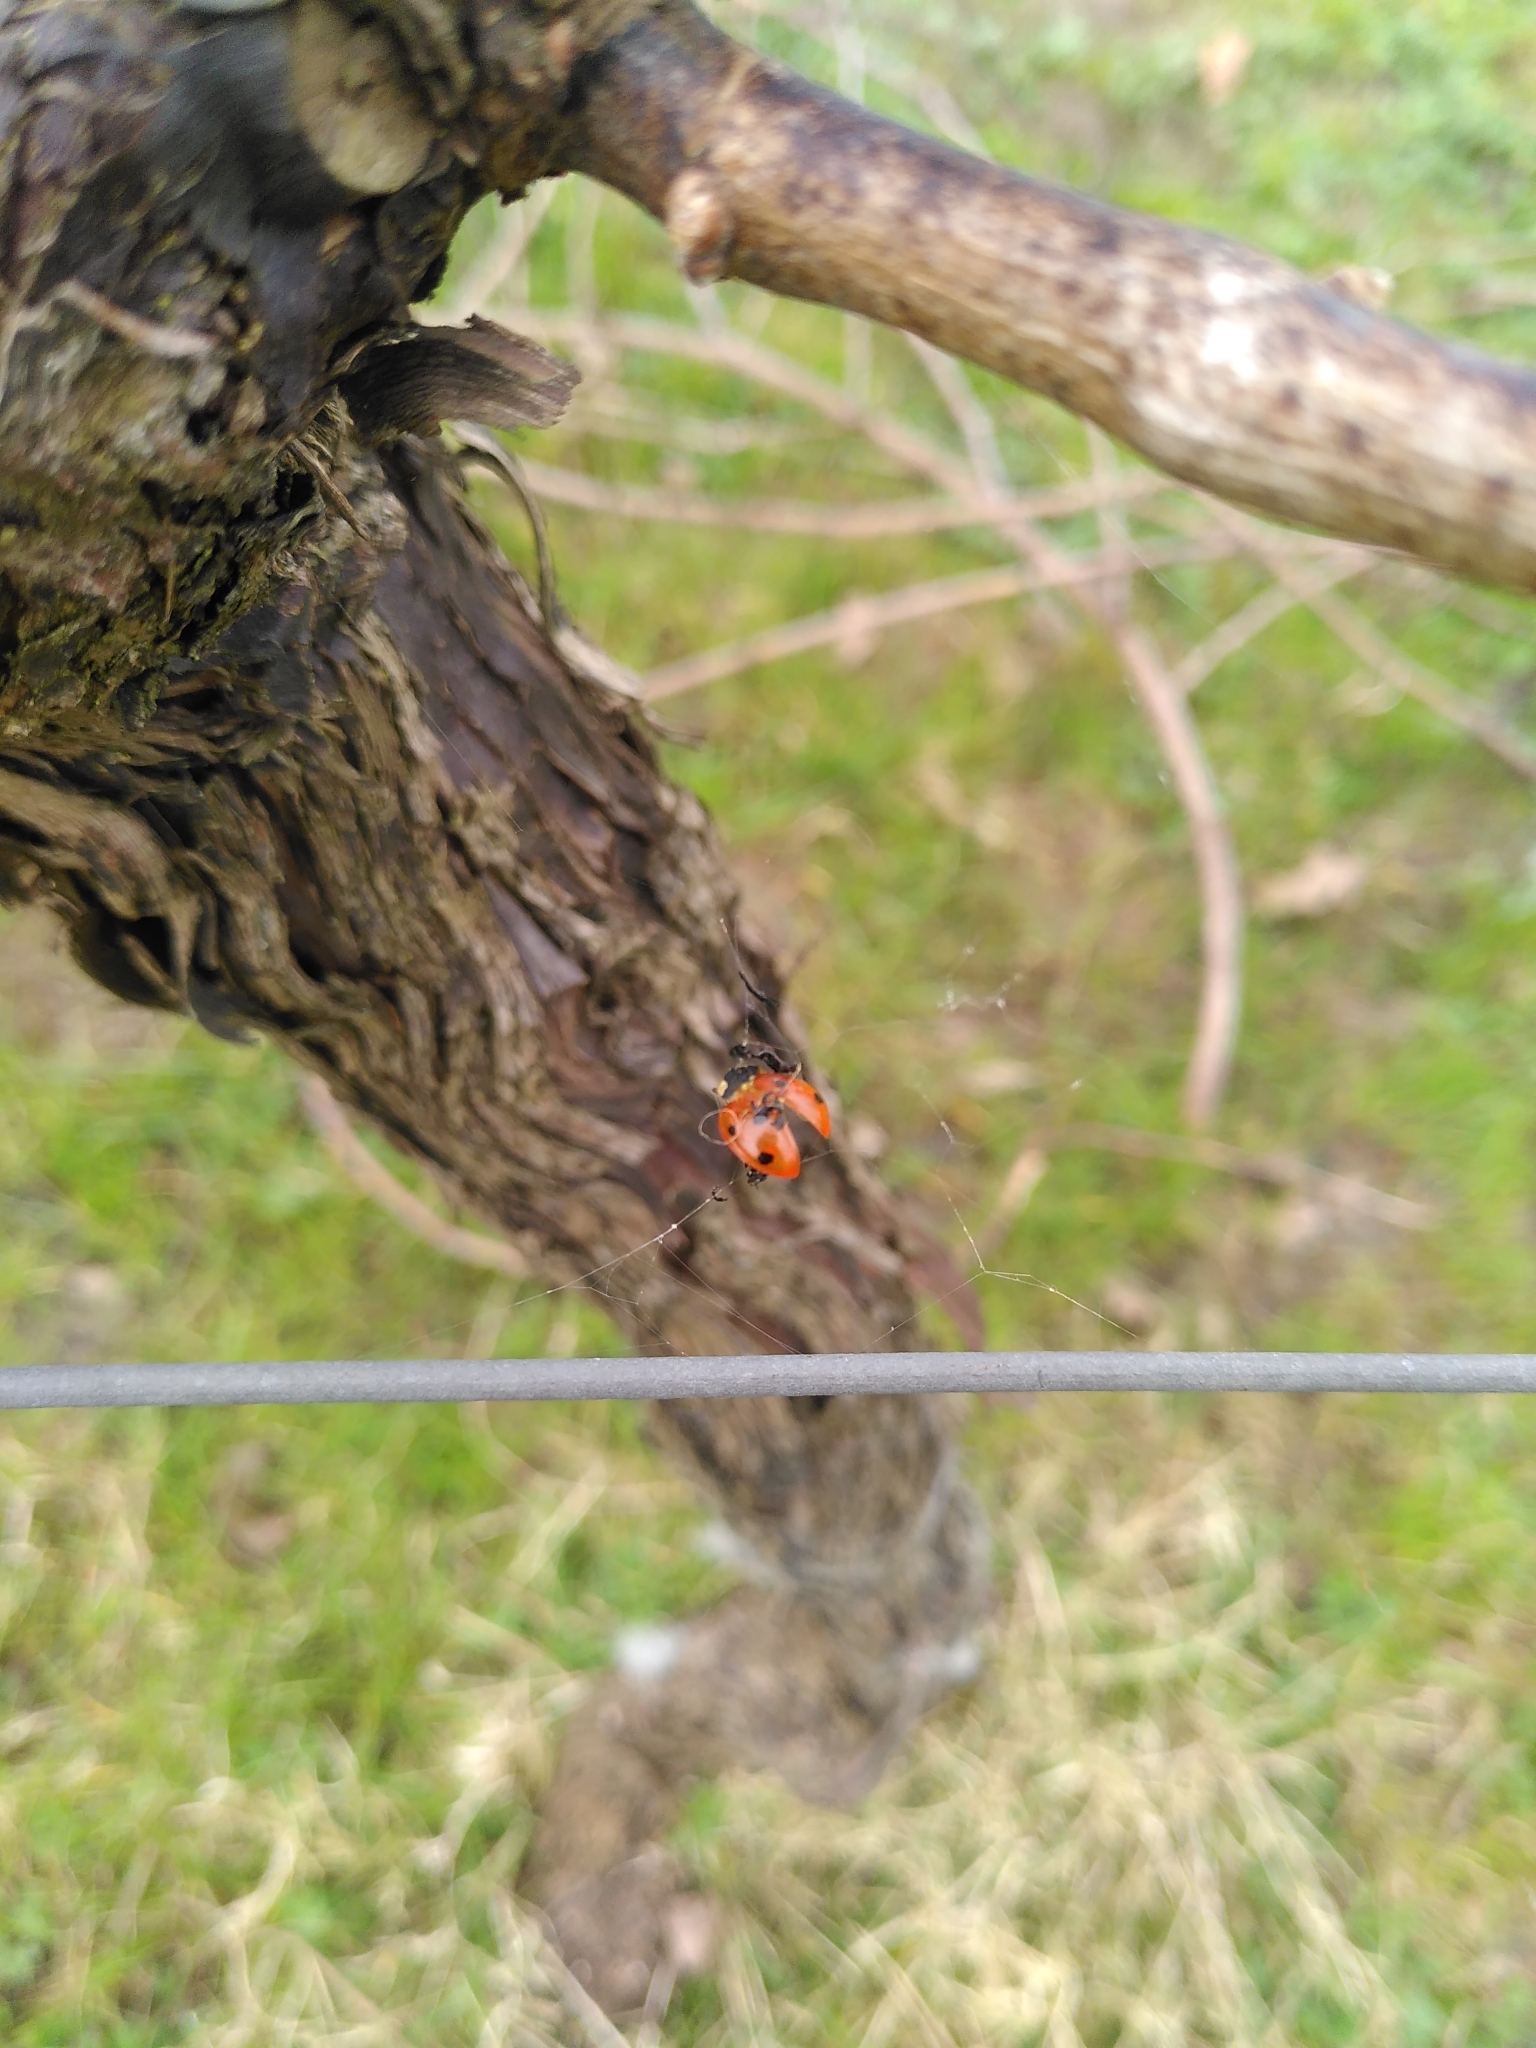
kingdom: Animalia
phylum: Arthropoda
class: Insecta
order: Coleoptera
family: Coccinellidae
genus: Coccinella
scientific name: Coccinella septempunctata
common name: Sevenspotted lady beetle
